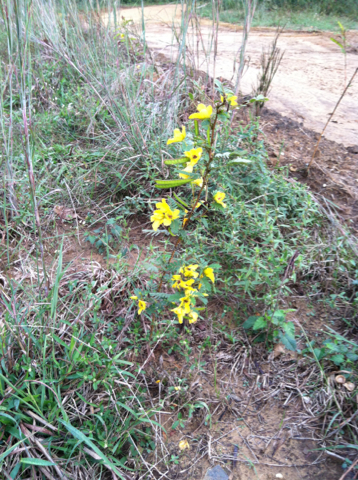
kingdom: Plantae
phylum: Tracheophyta
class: Magnoliopsida
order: Fabales
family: Fabaceae
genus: Chamaecrista
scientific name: Chamaecrista fasciculata
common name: Golden cassia
